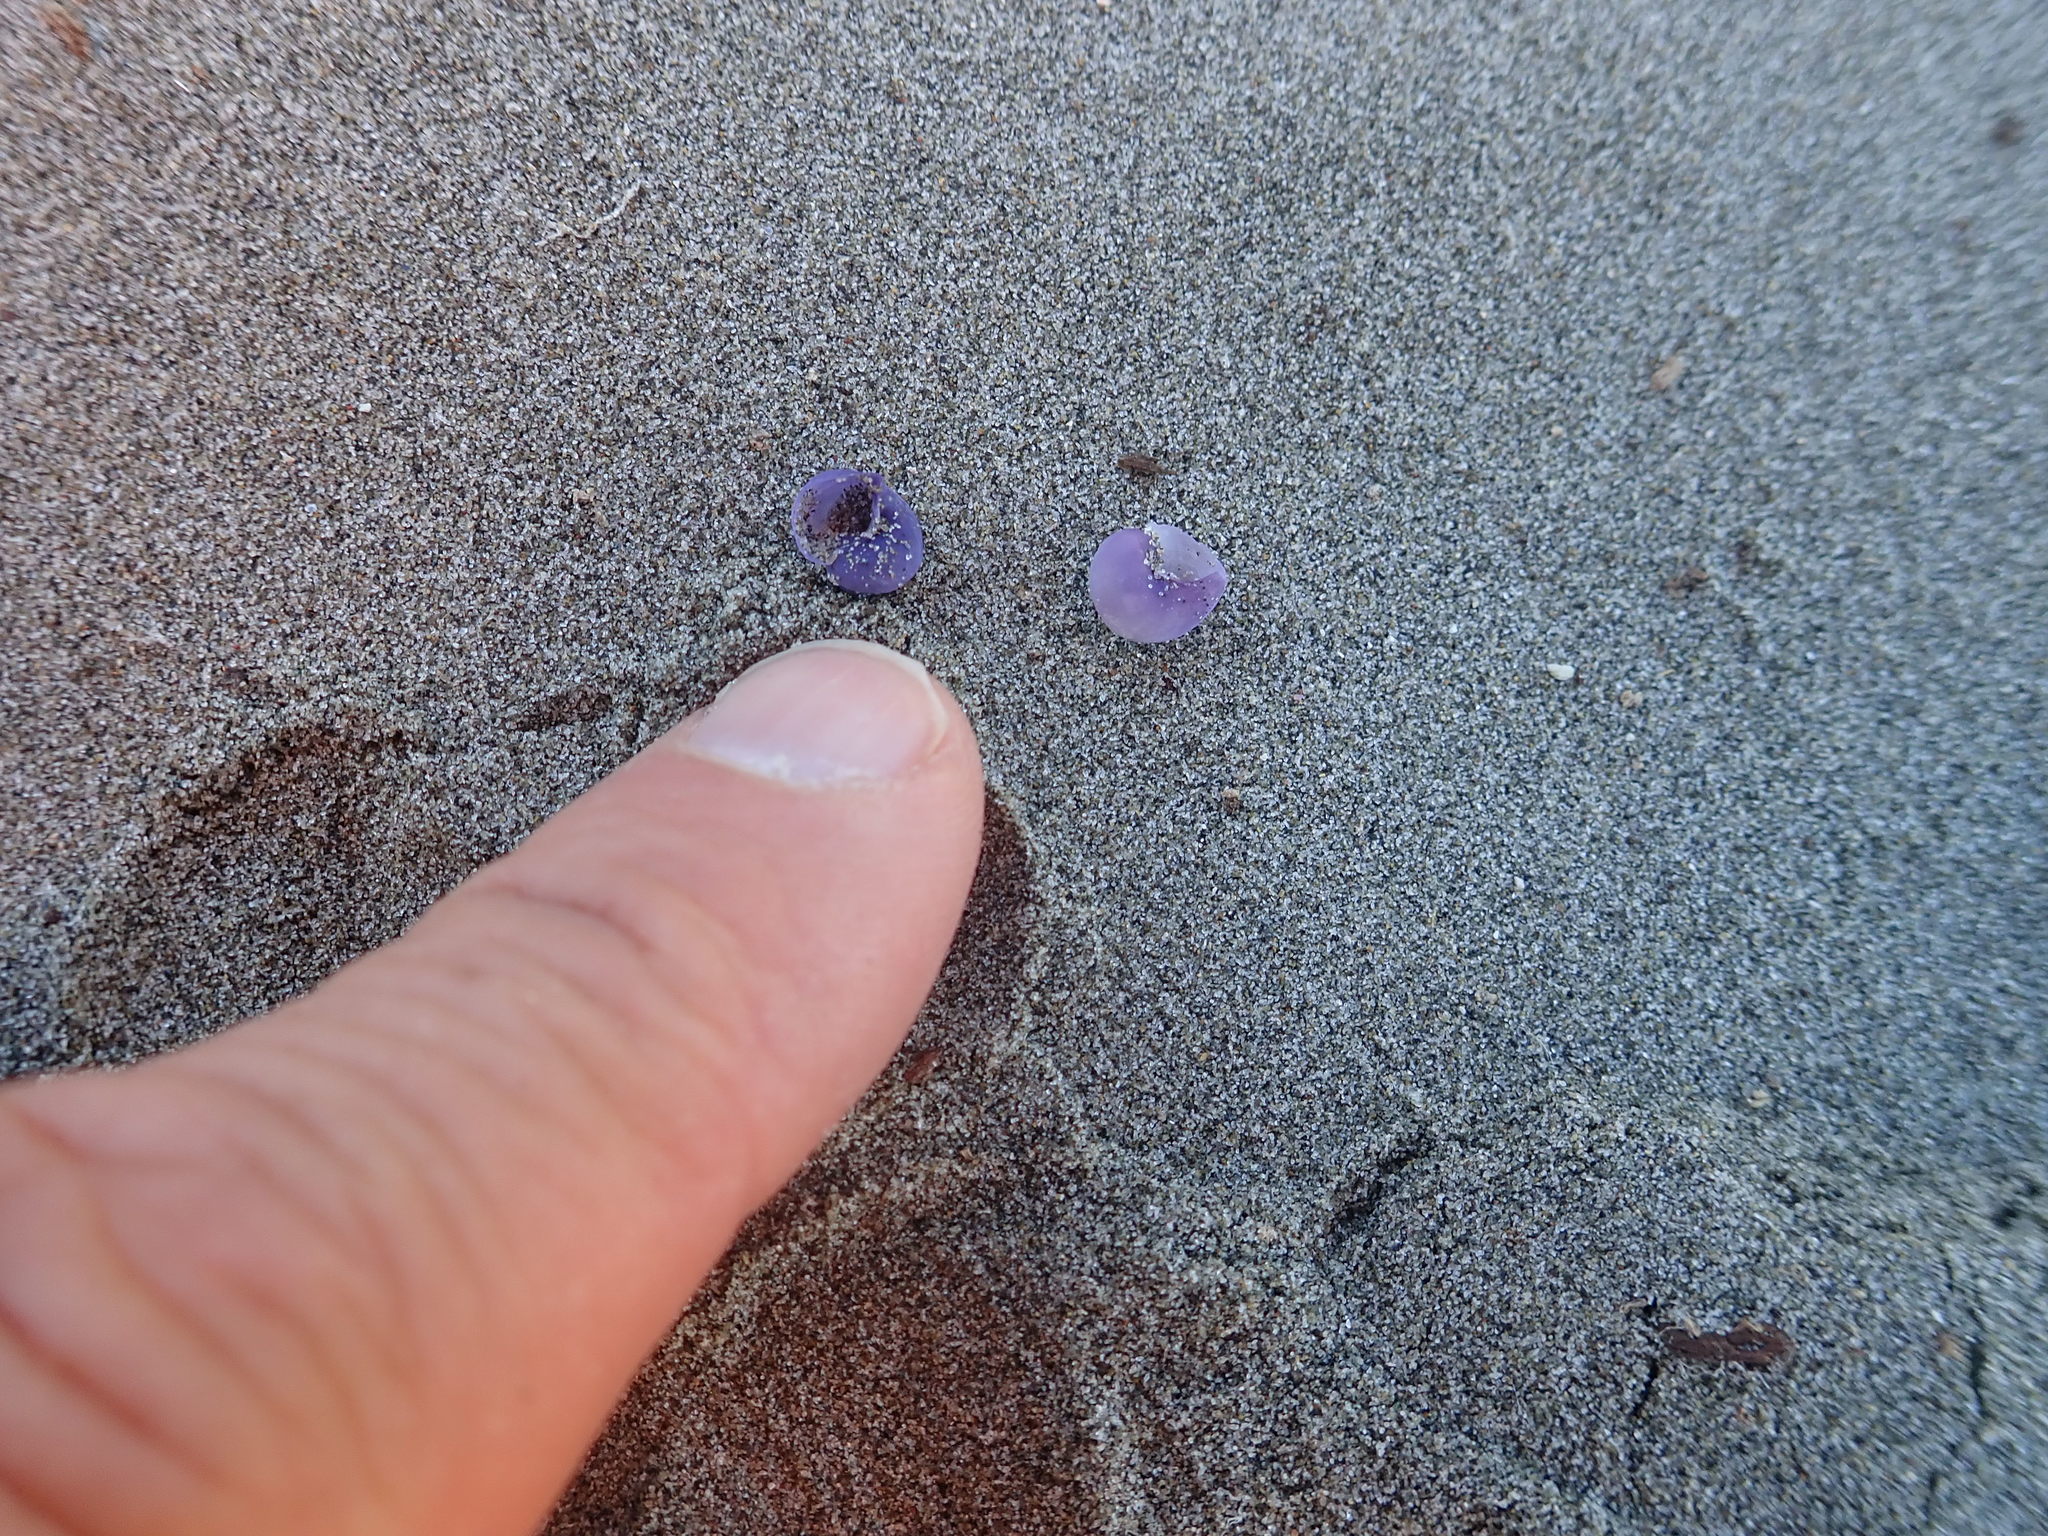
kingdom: Animalia
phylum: Mollusca
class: Gastropoda
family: Epitoniidae
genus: Janthina
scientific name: Janthina exigua
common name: Dwarf janthina
